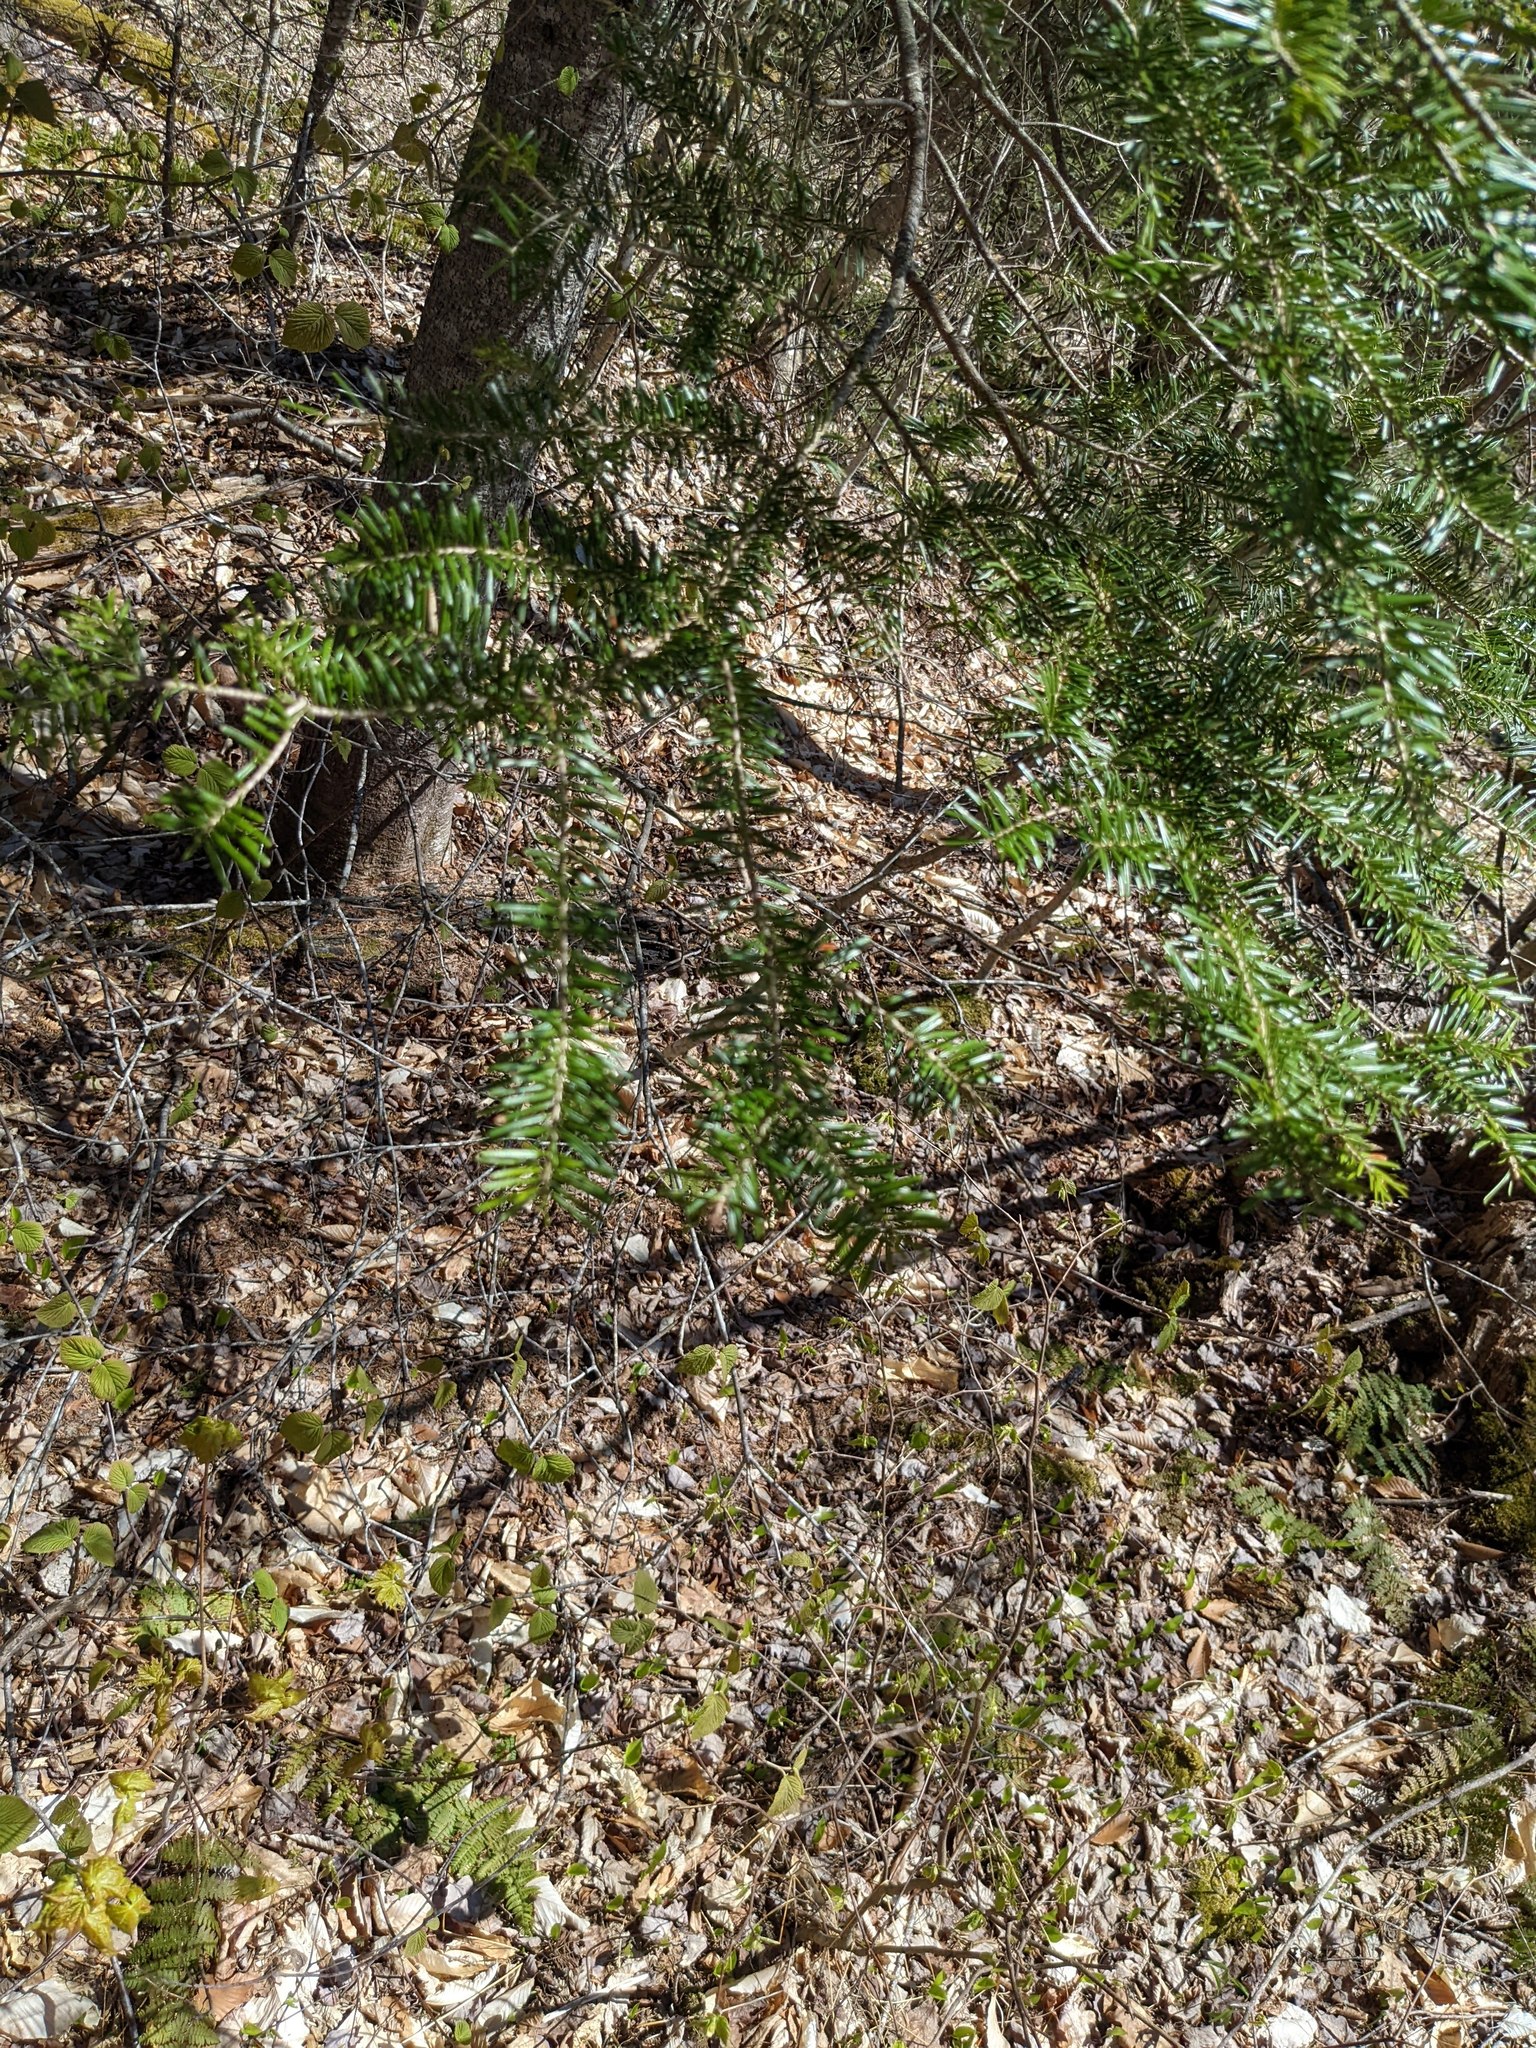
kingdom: Plantae
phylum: Tracheophyta
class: Pinopsida
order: Pinales
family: Pinaceae
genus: Abies
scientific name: Abies balsamea
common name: Balsam fir
